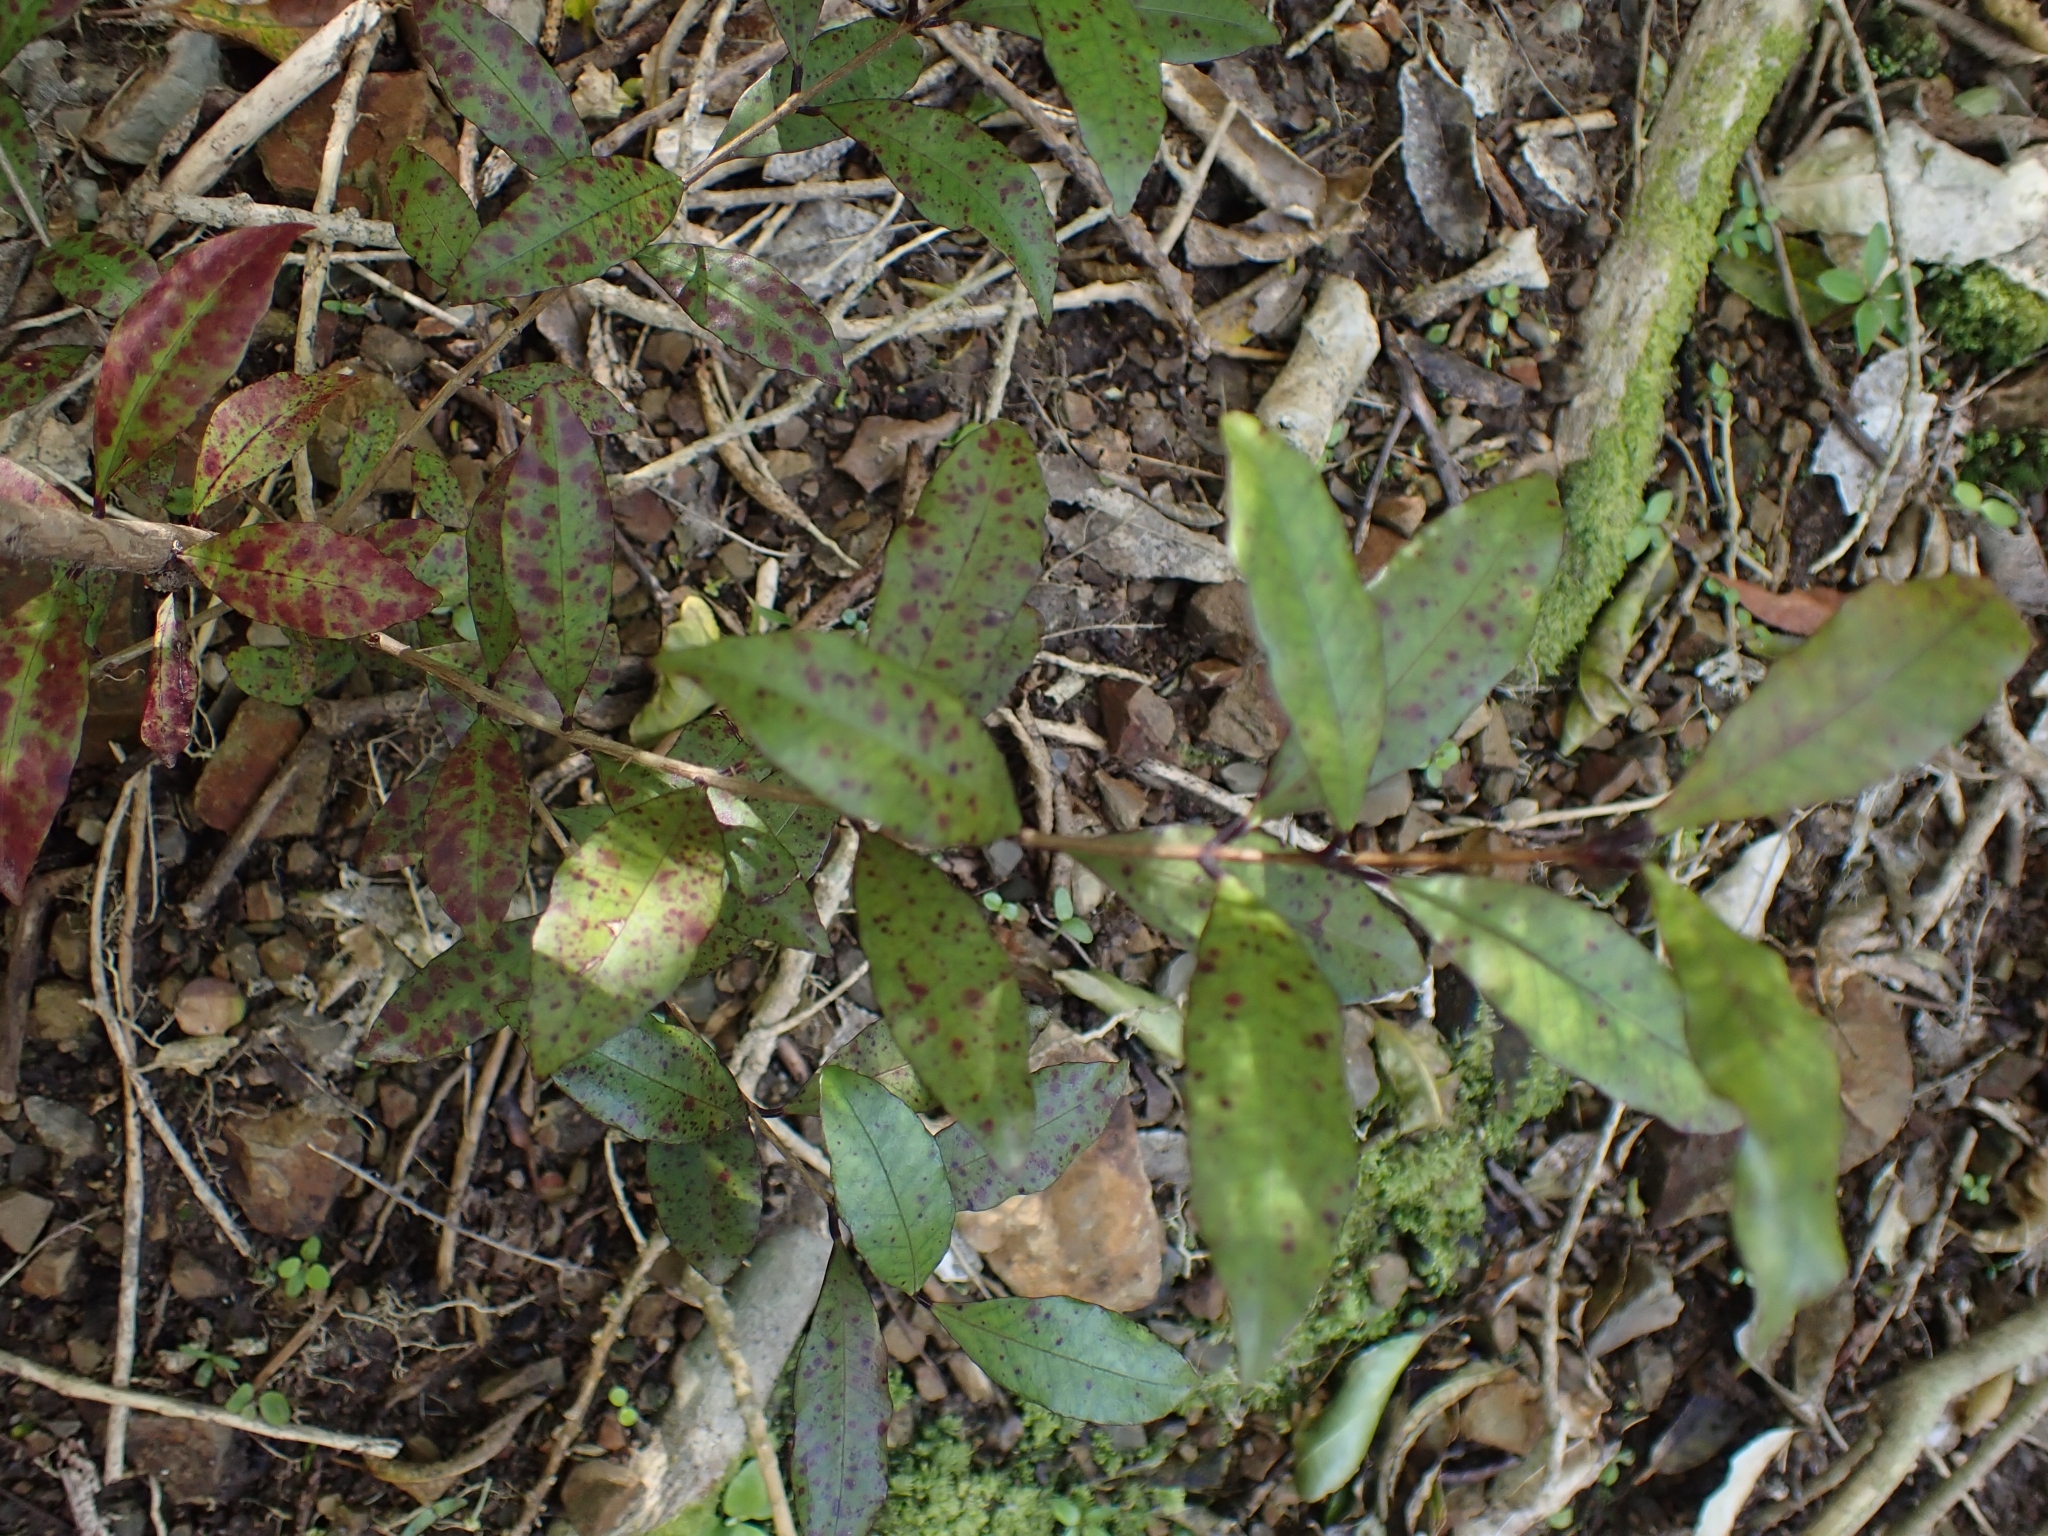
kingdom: Plantae
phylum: Tracheophyta
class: Magnoliopsida
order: Myrtales
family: Myrtaceae
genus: Syzygium
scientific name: Syzygium maire
